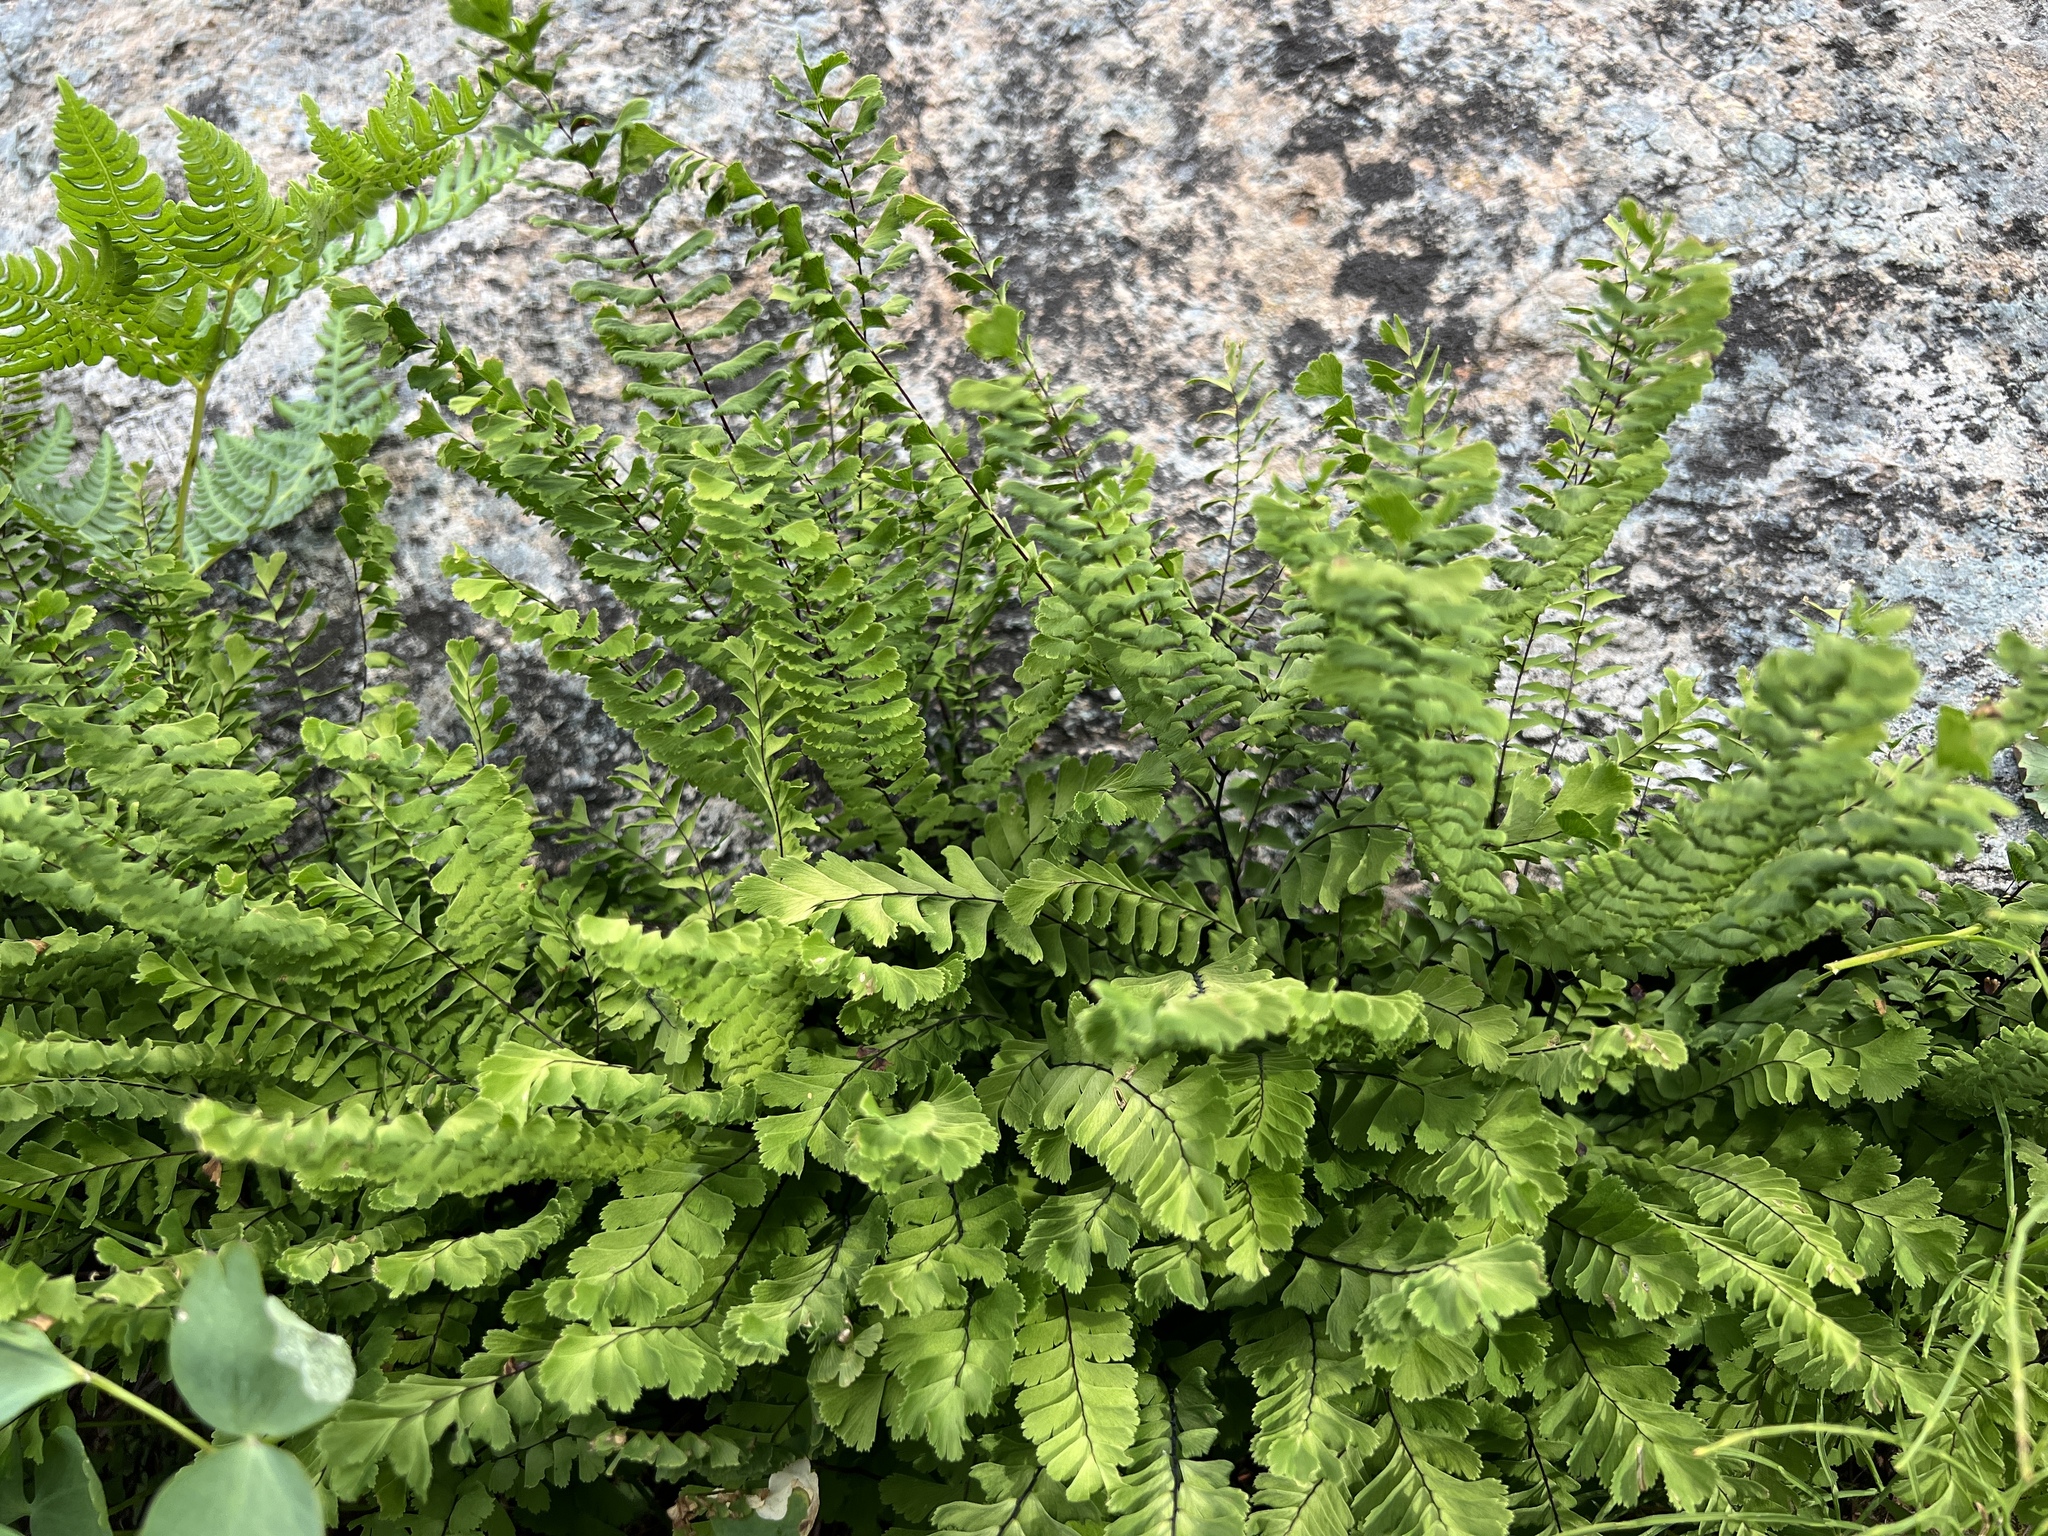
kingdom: Plantae
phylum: Tracheophyta
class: Polypodiopsida
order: Polypodiales
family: Pteridaceae
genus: Adiantum
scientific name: Adiantum aleuticum
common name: Aleutian maidenhair fern
